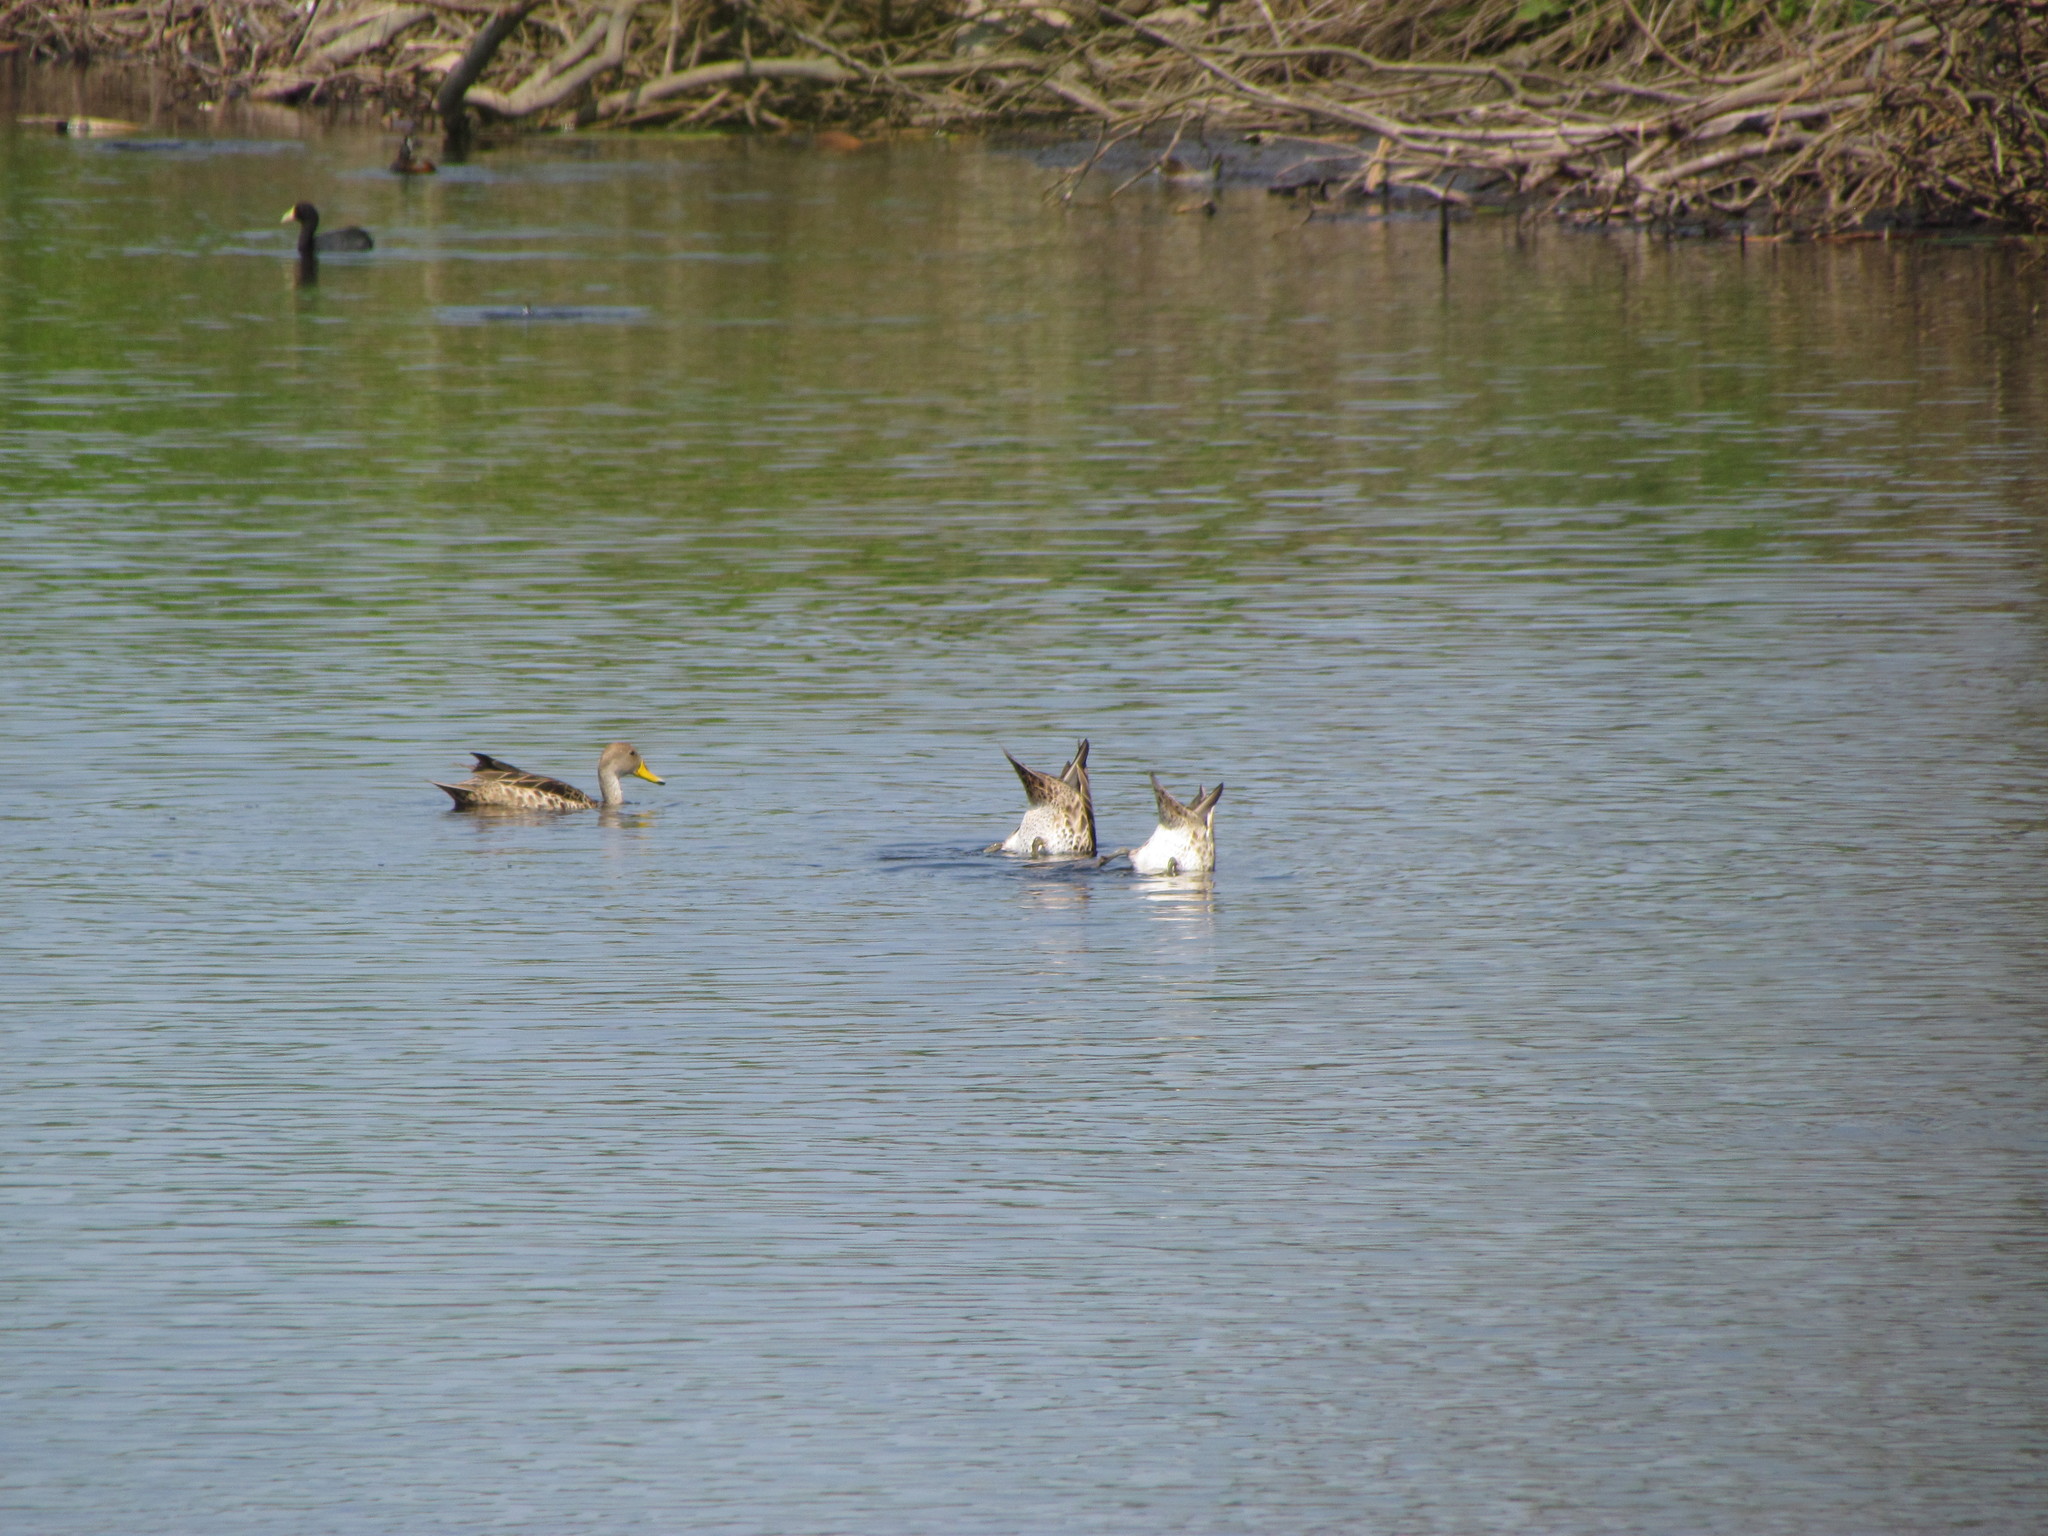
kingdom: Animalia
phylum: Chordata
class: Aves
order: Anseriformes
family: Anatidae
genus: Anas
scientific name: Anas georgica
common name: Yellow-billed pintail
